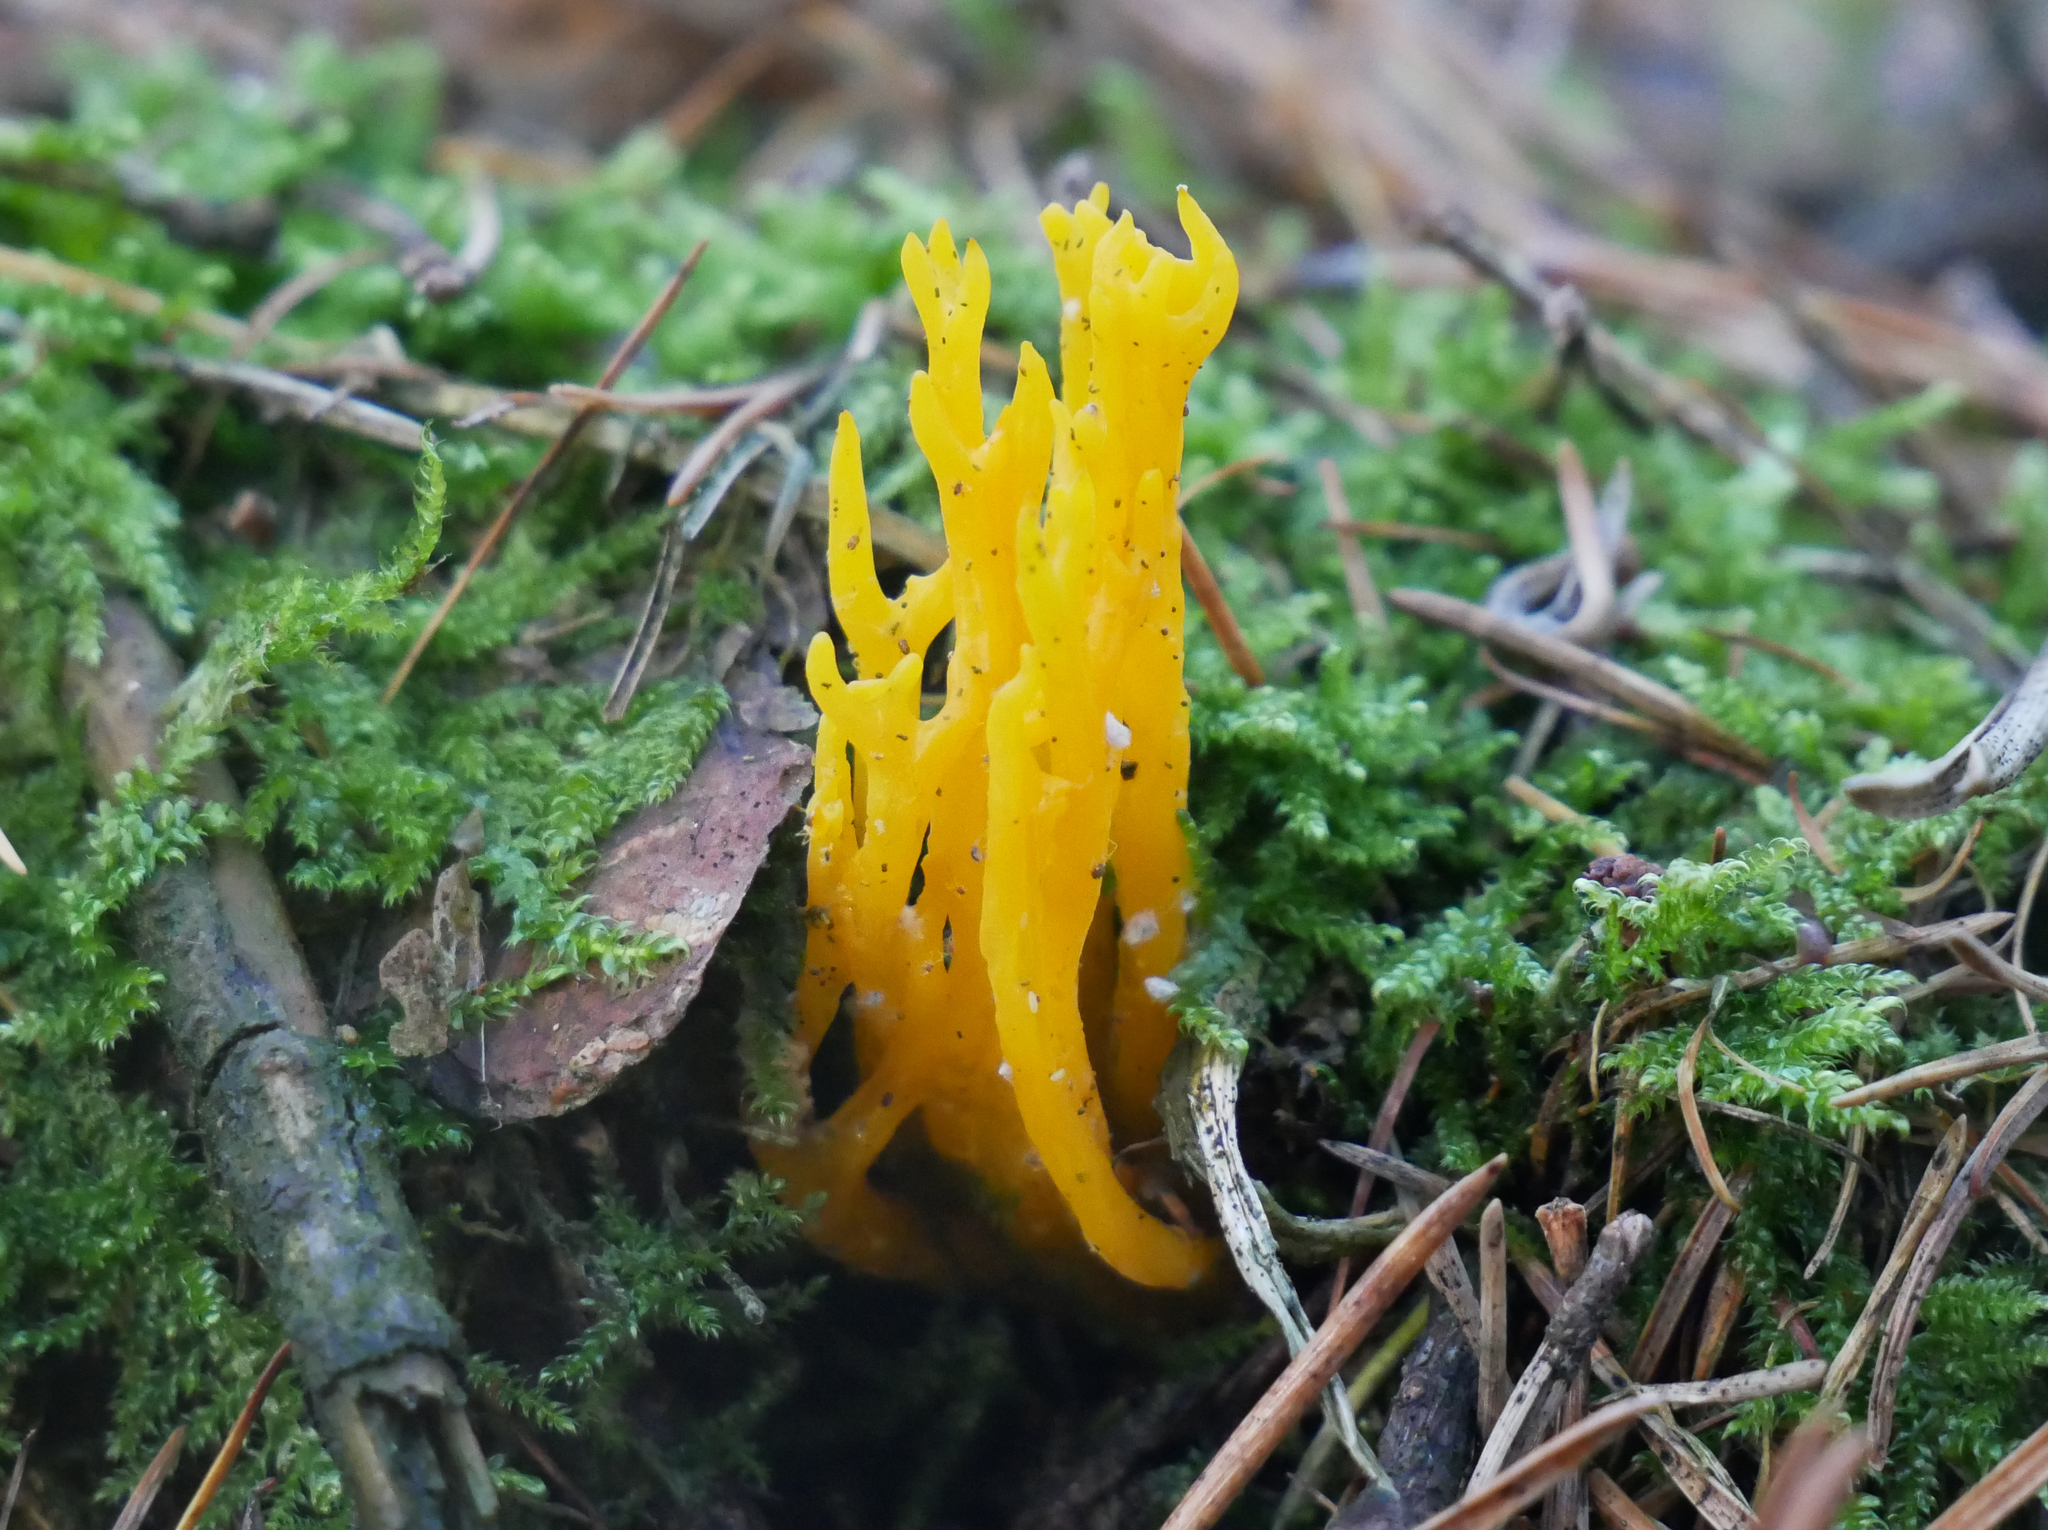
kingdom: Fungi
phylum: Basidiomycota
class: Dacrymycetes
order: Dacrymycetales
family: Dacrymycetaceae
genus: Calocera
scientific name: Calocera viscosa
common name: Yellow stagshorn
